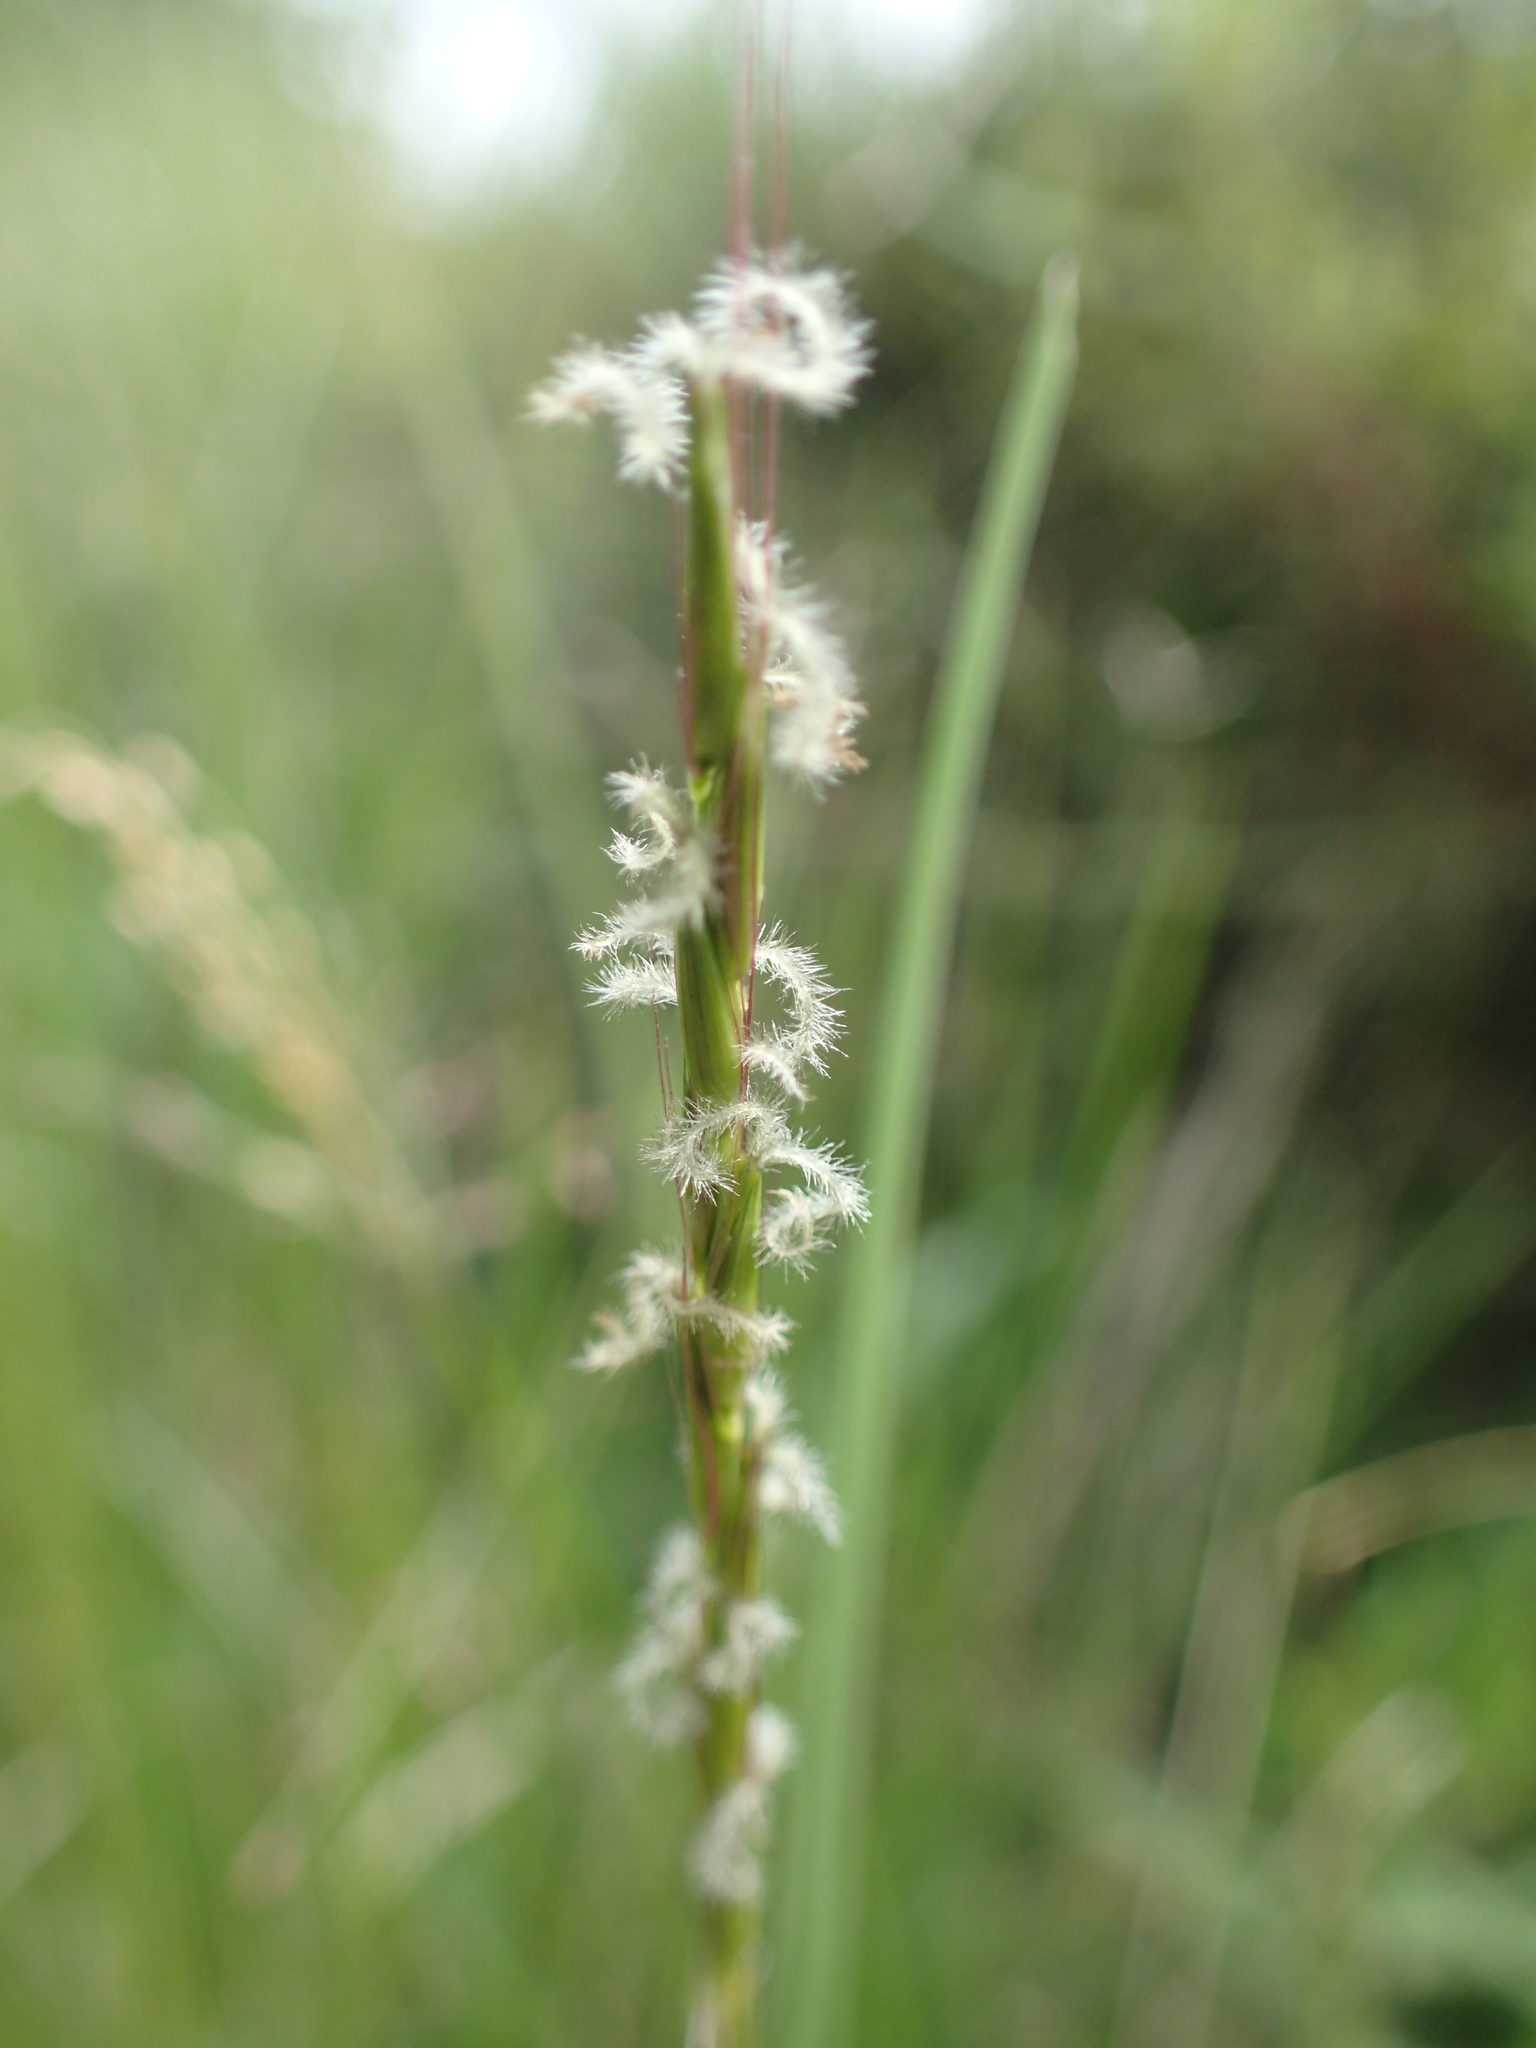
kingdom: Plantae
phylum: Tracheophyta
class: Liliopsida
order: Poales
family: Poaceae
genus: Cenchrus
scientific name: Cenchrus pseudotriticoides
